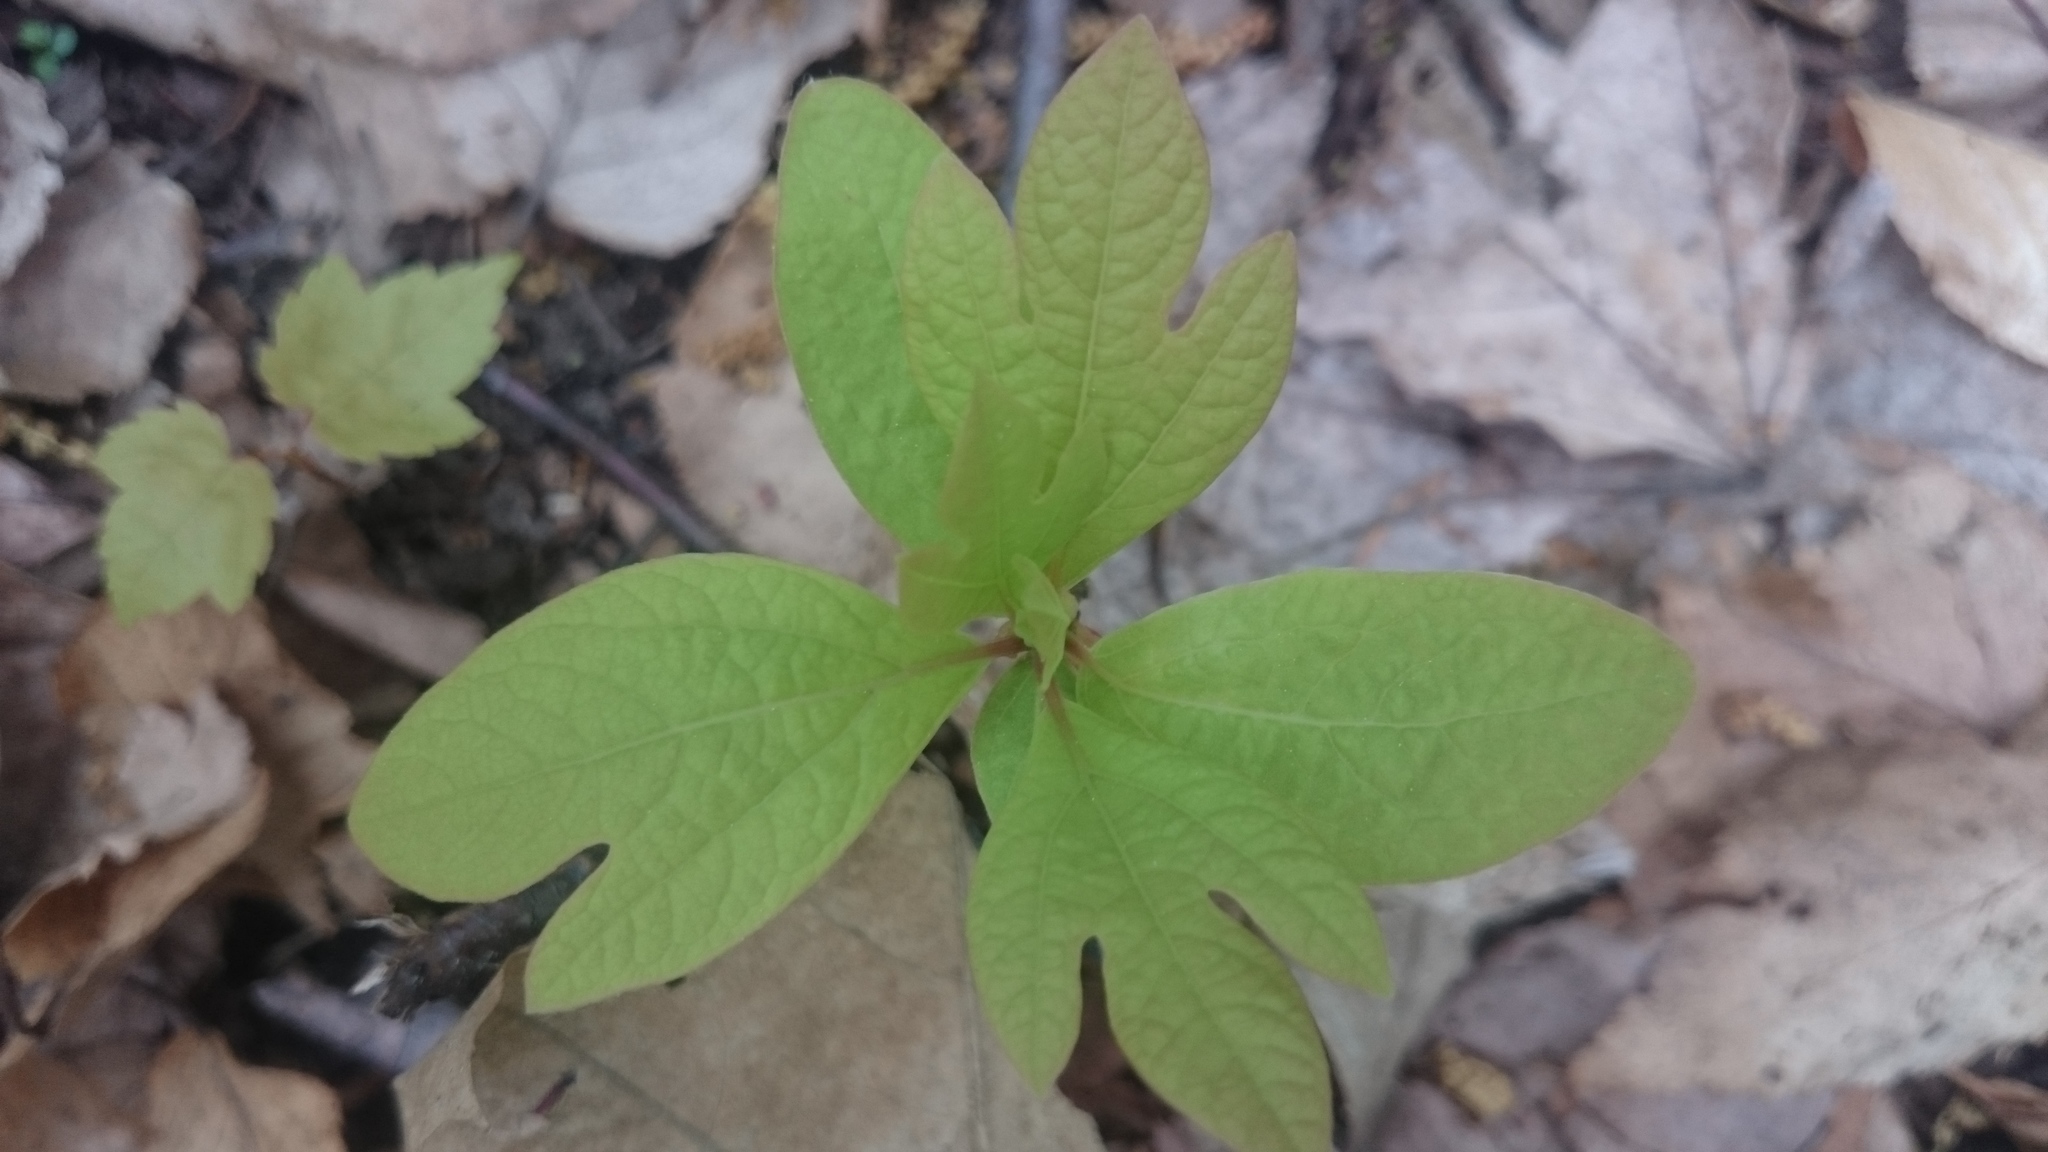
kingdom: Plantae
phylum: Tracheophyta
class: Magnoliopsida
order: Laurales
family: Lauraceae
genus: Sassafras
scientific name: Sassafras albidum
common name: Sassafras
